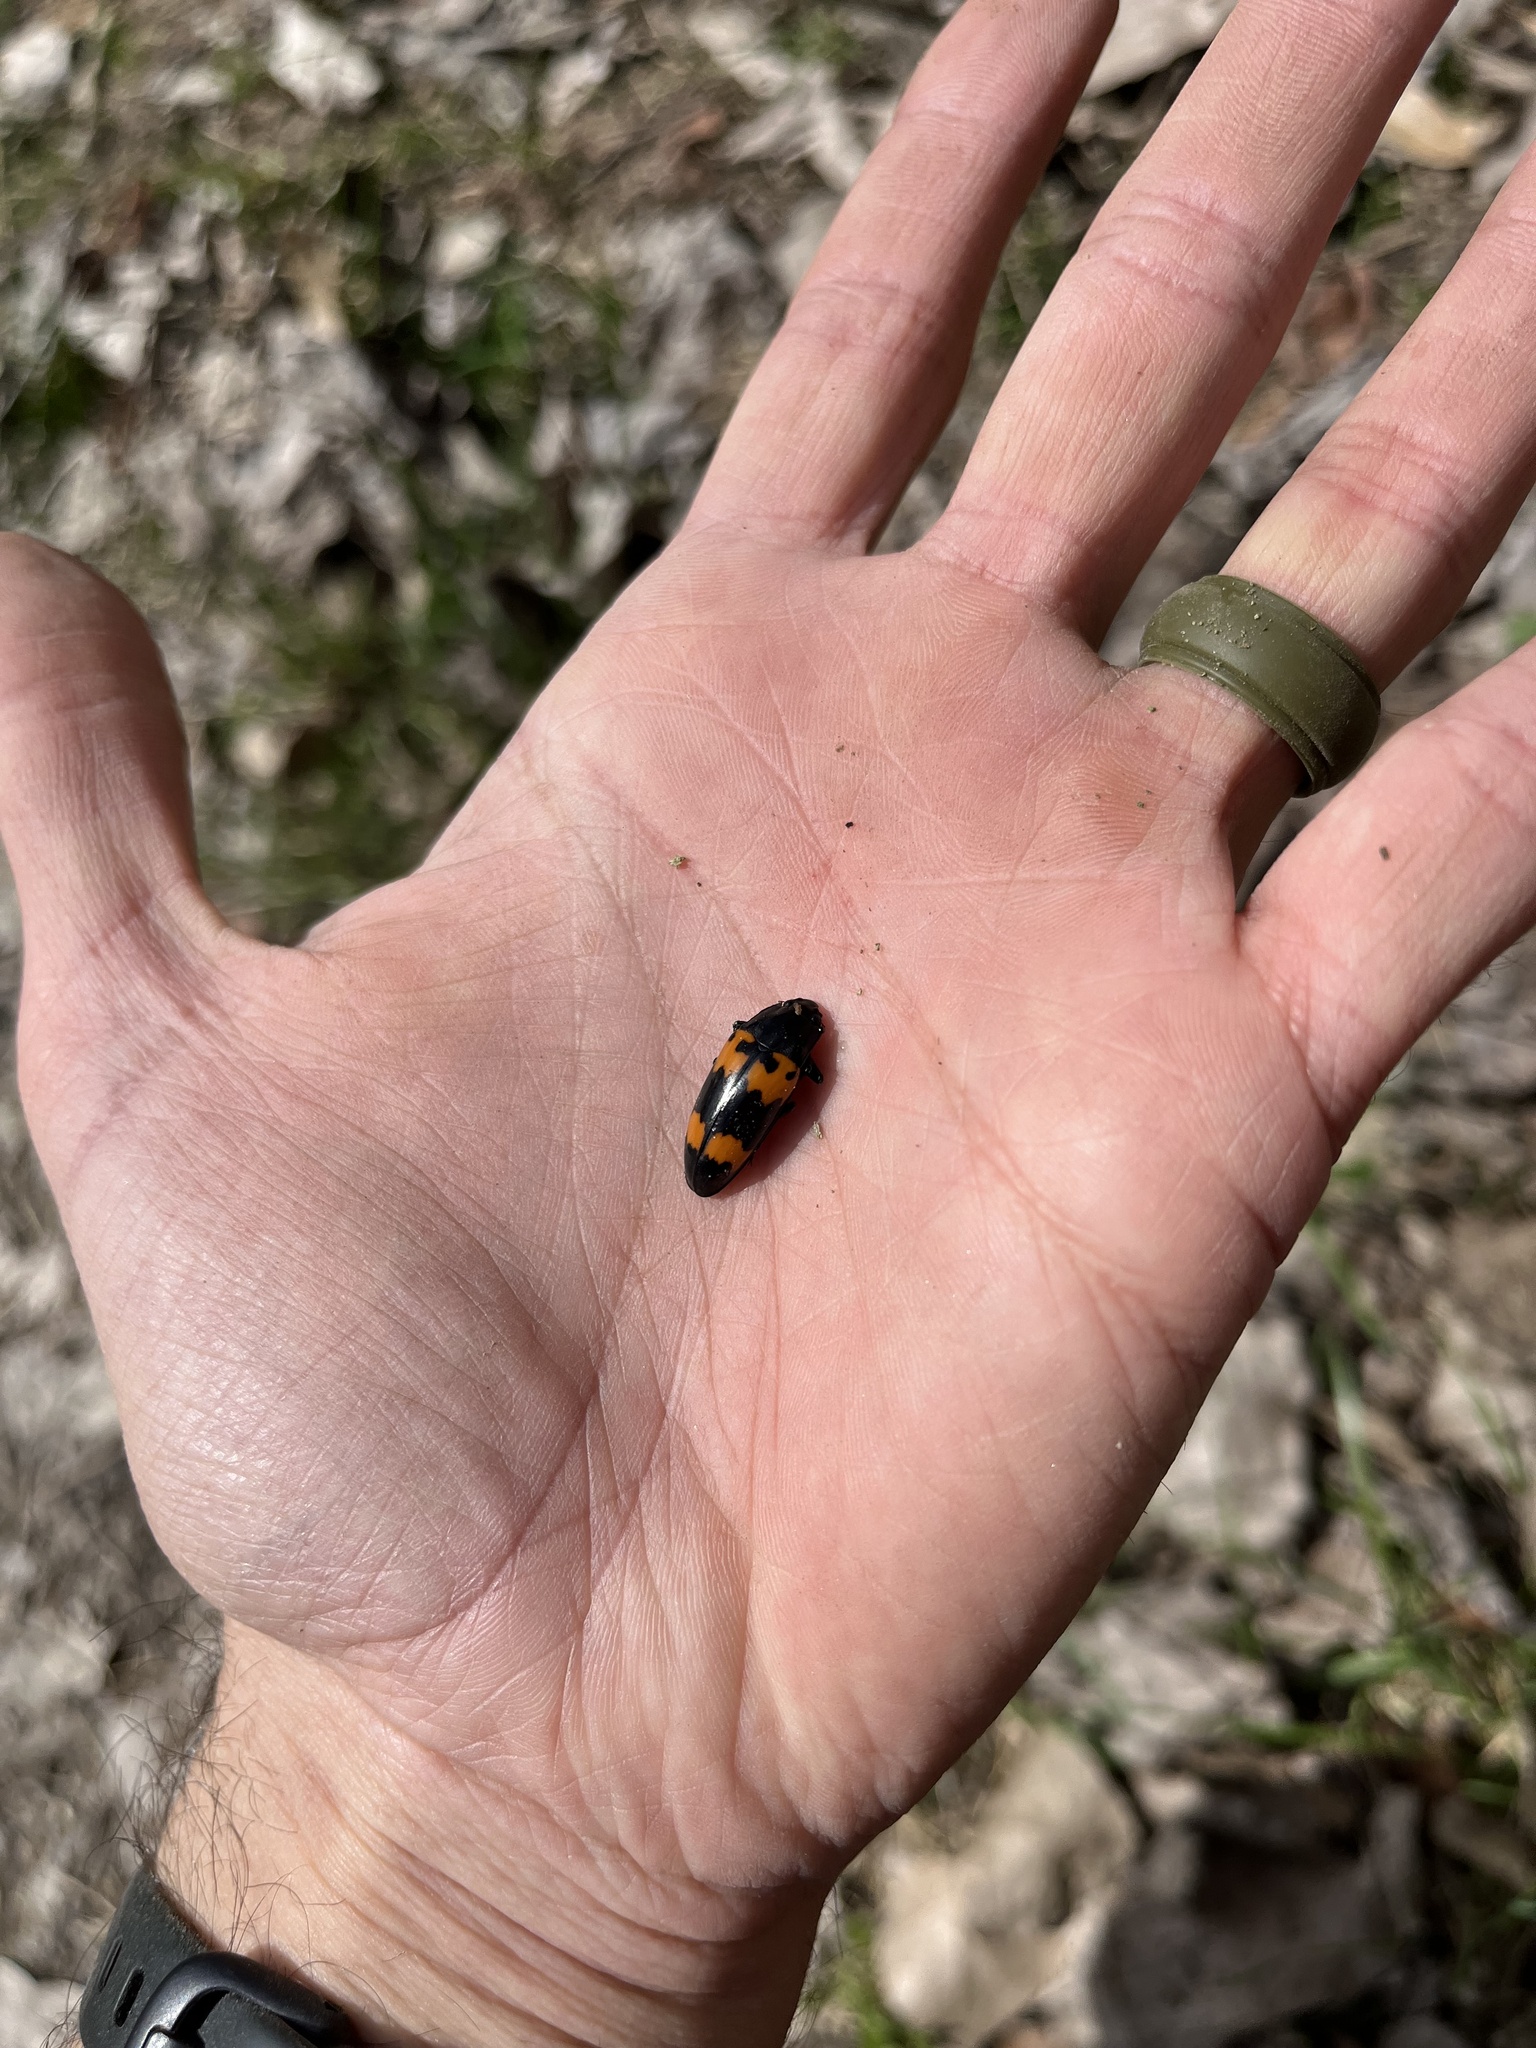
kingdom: Animalia
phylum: Arthropoda
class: Insecta
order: Coleoptera
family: Erotylidae
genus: Megalodacne
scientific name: Megalodacne heros
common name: Pleasing fungus beetle
